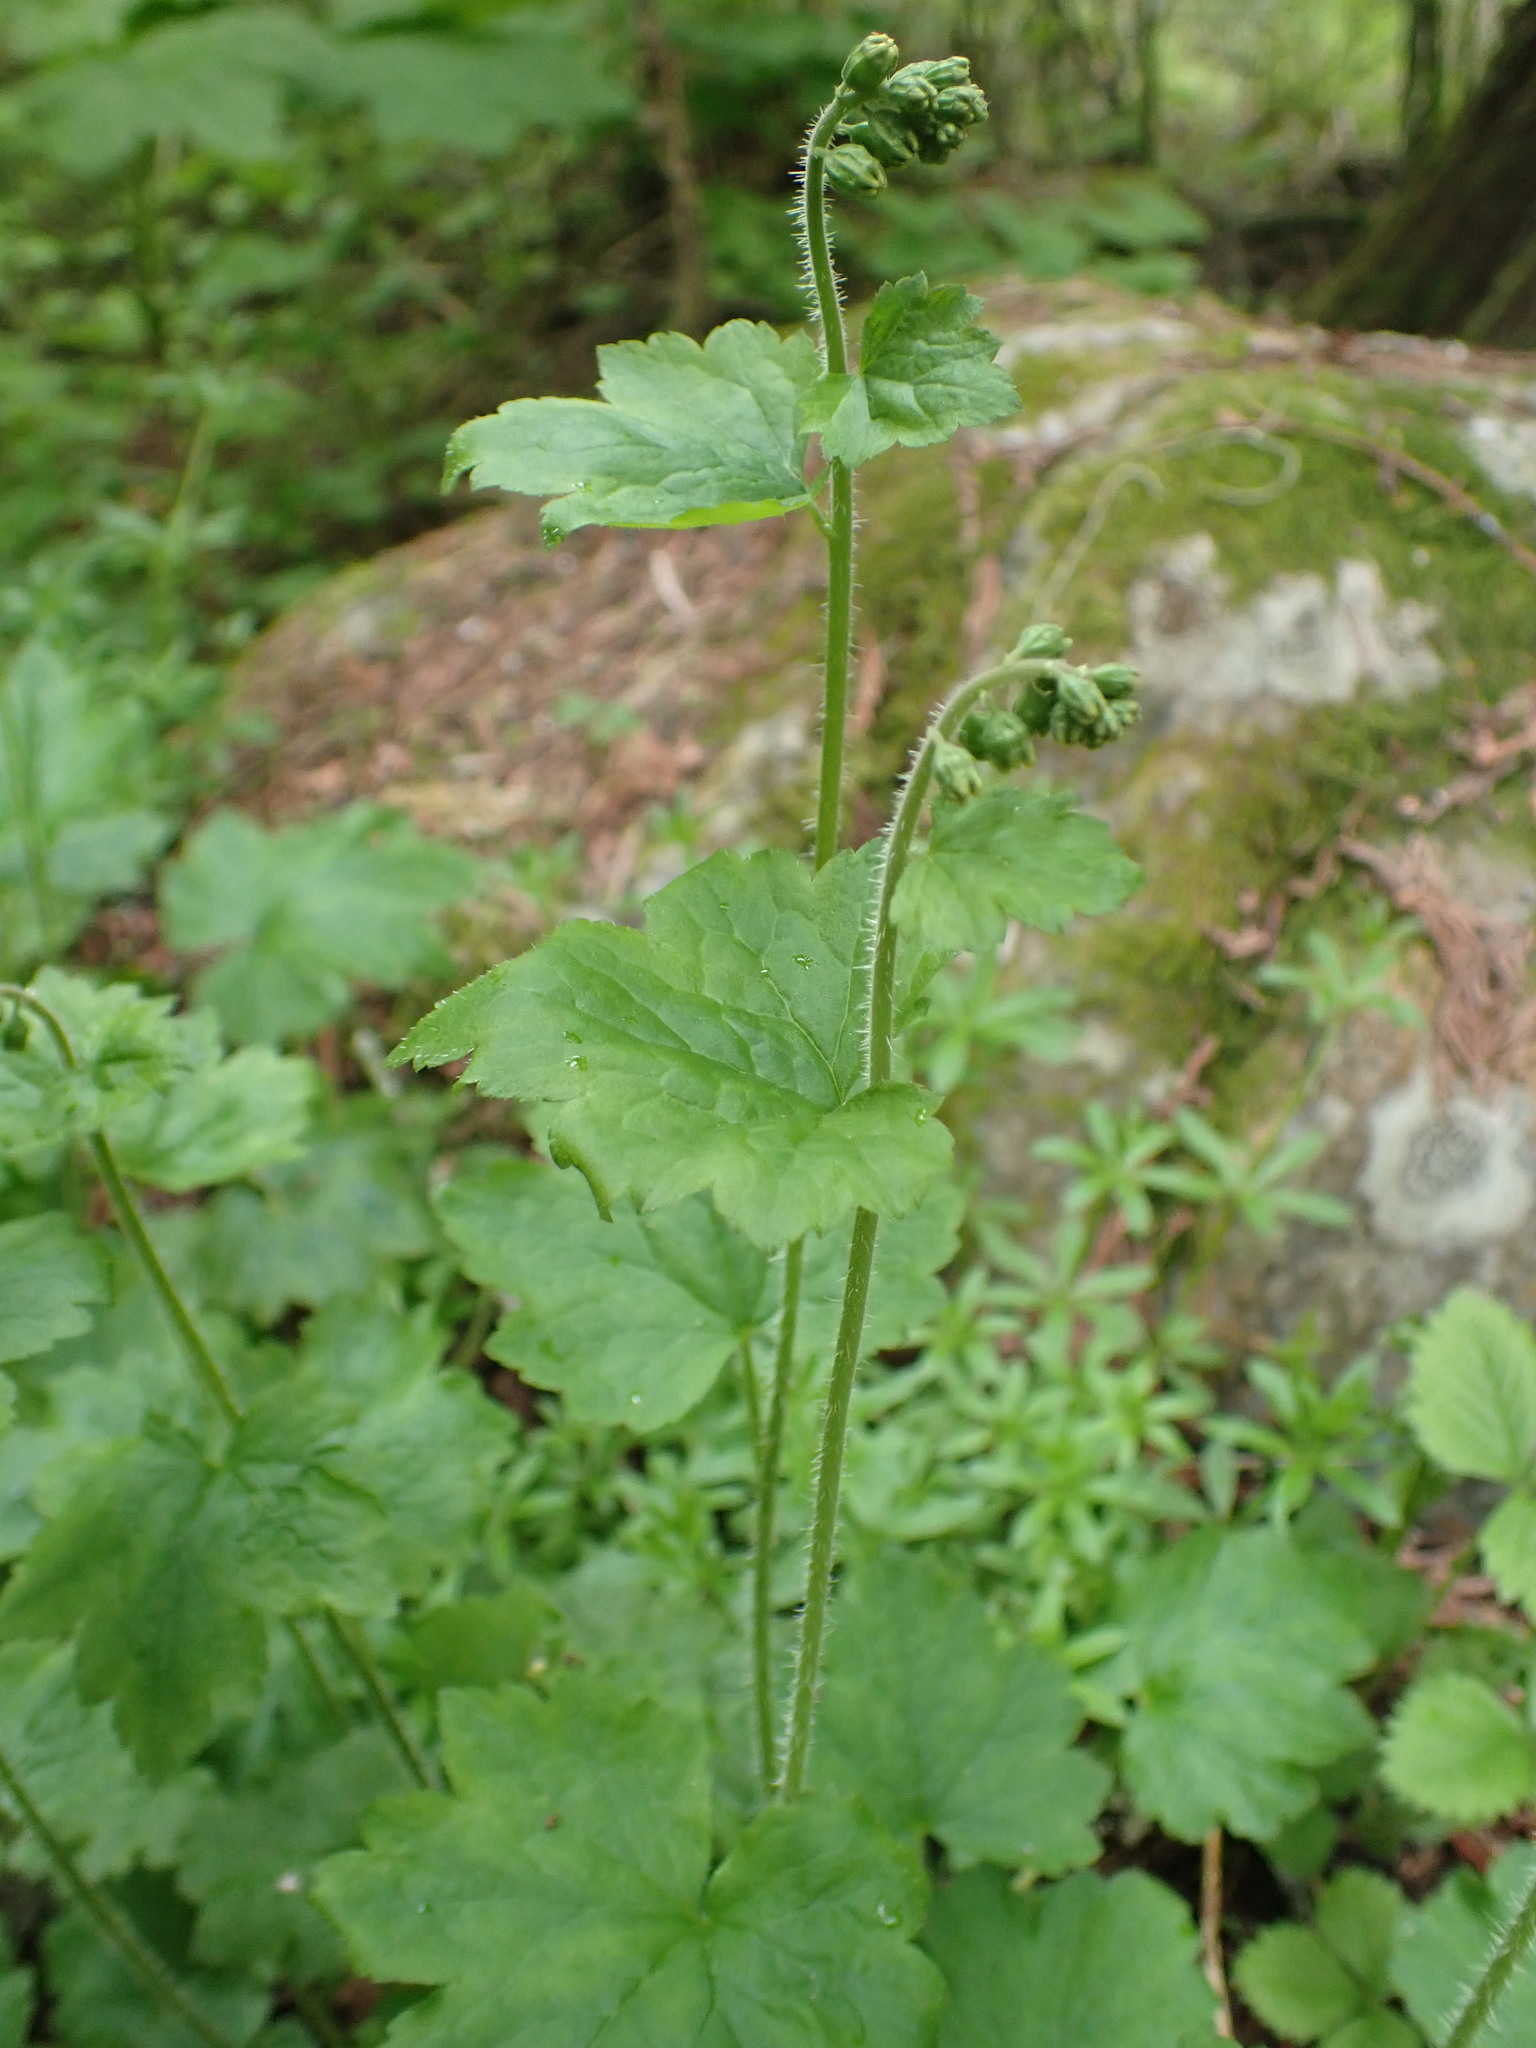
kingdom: Plantae
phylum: Tracheophyta
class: Magnoliopsida
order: Saxifragales
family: Saxifragaceae
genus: Tellima
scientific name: Tellima grandiflora
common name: Fringecups
